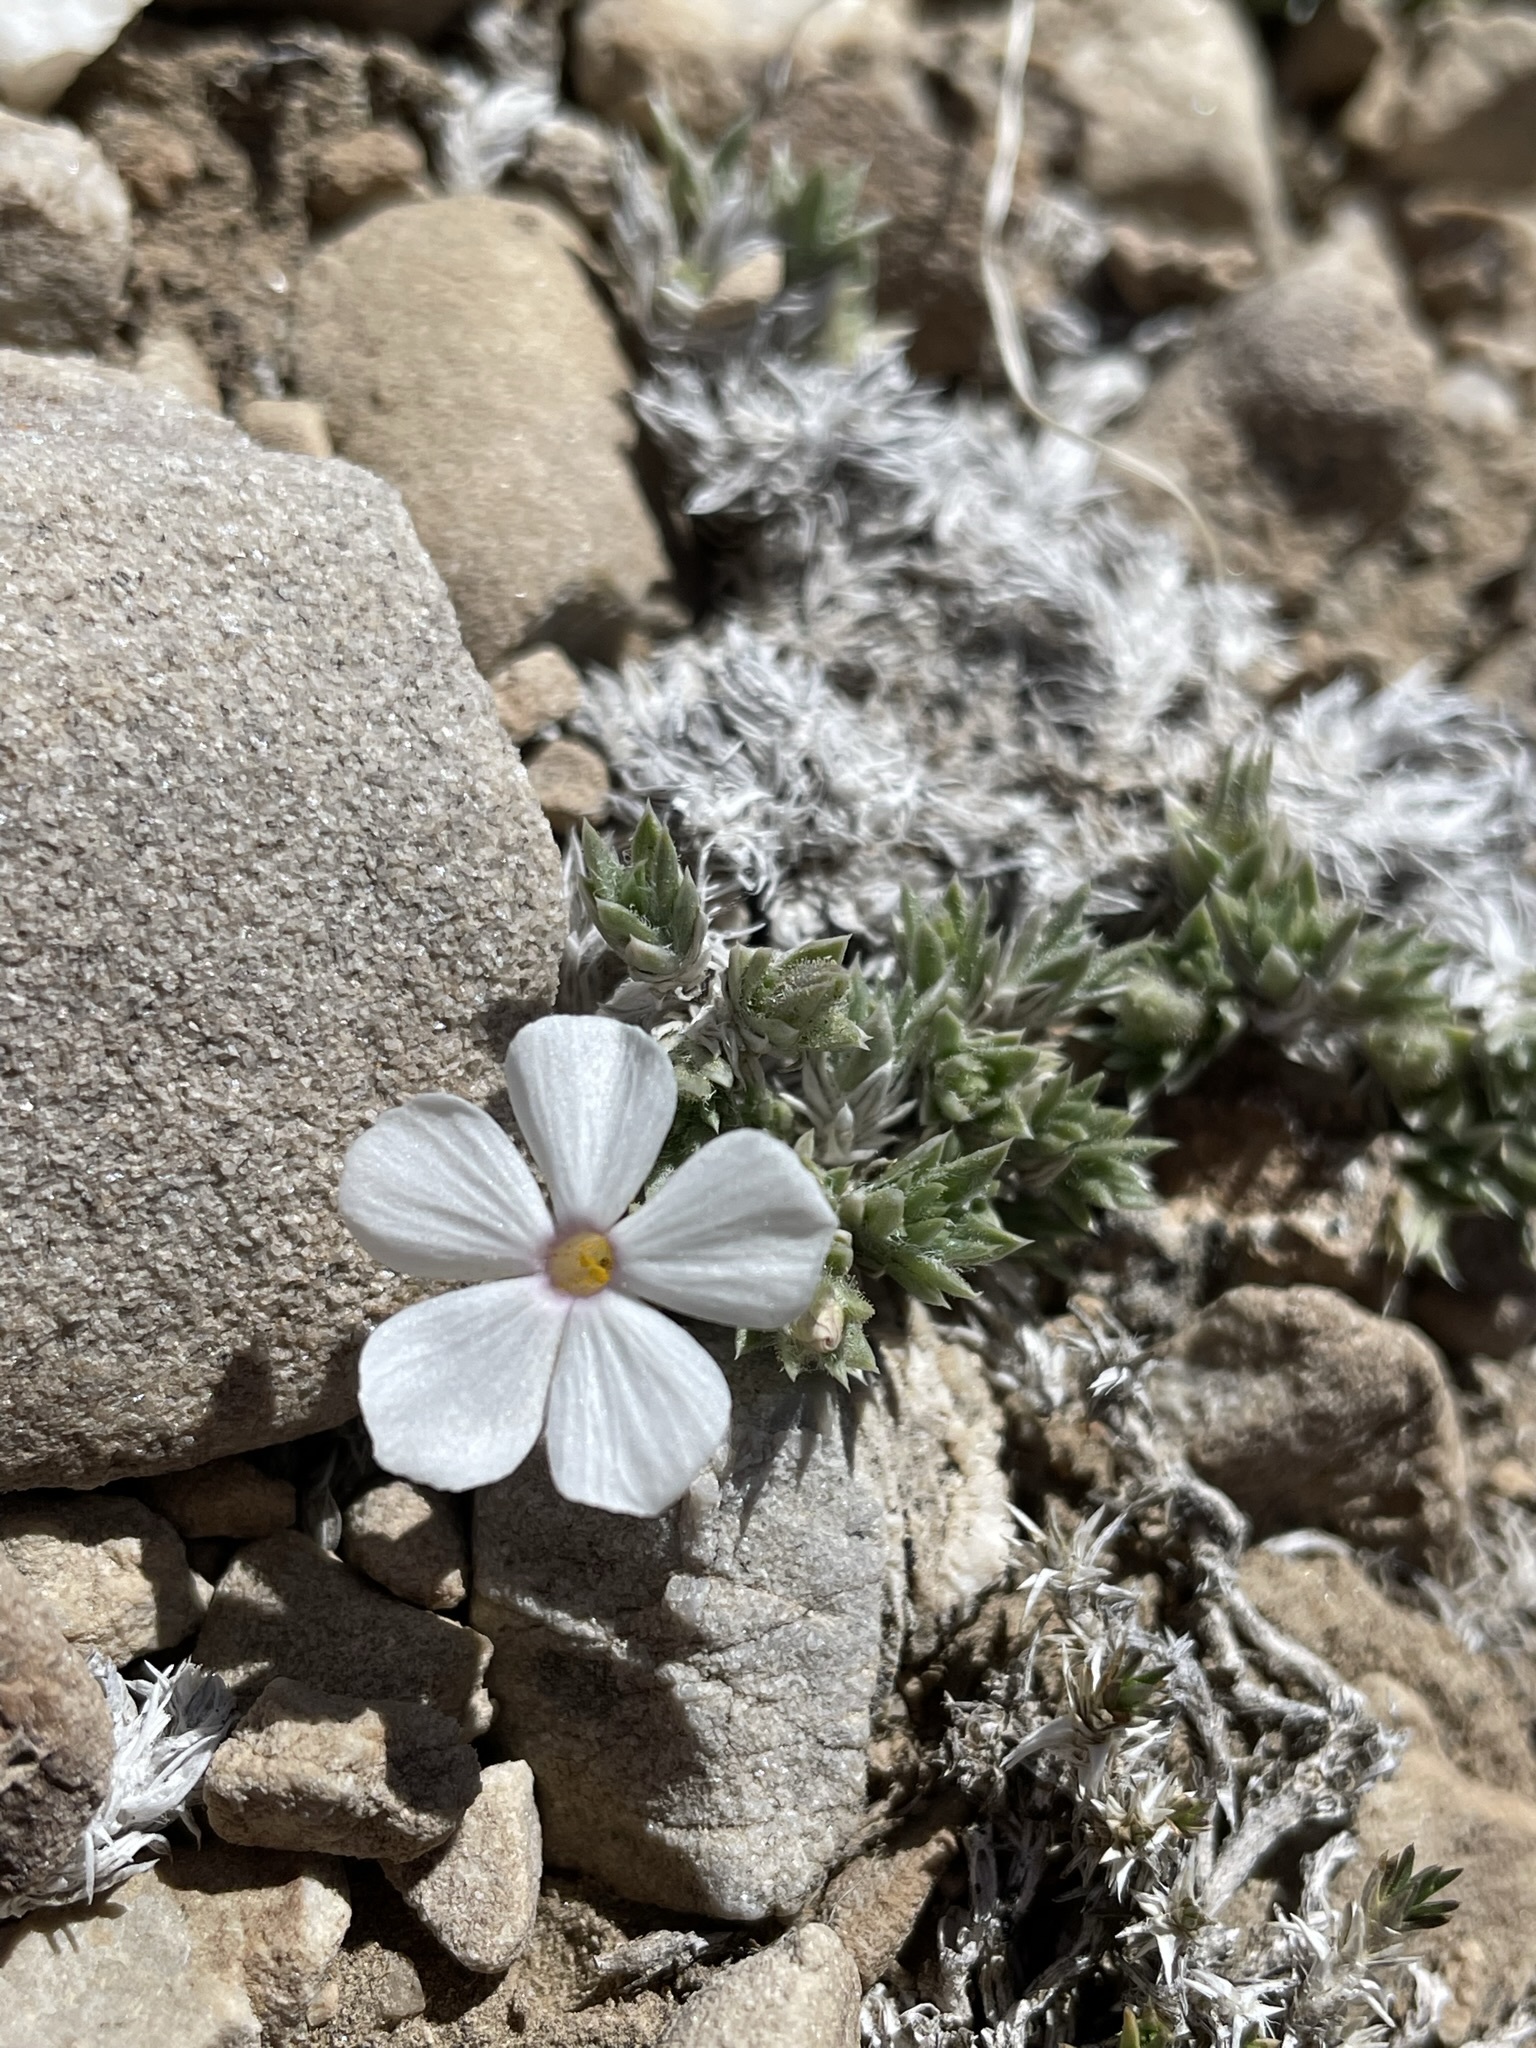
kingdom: Plantae
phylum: Tracheophyta
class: Magnoliopsida
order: Ericales
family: Polemoniaceae
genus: Phlox
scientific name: Phlox condensata
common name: Compact phlox
